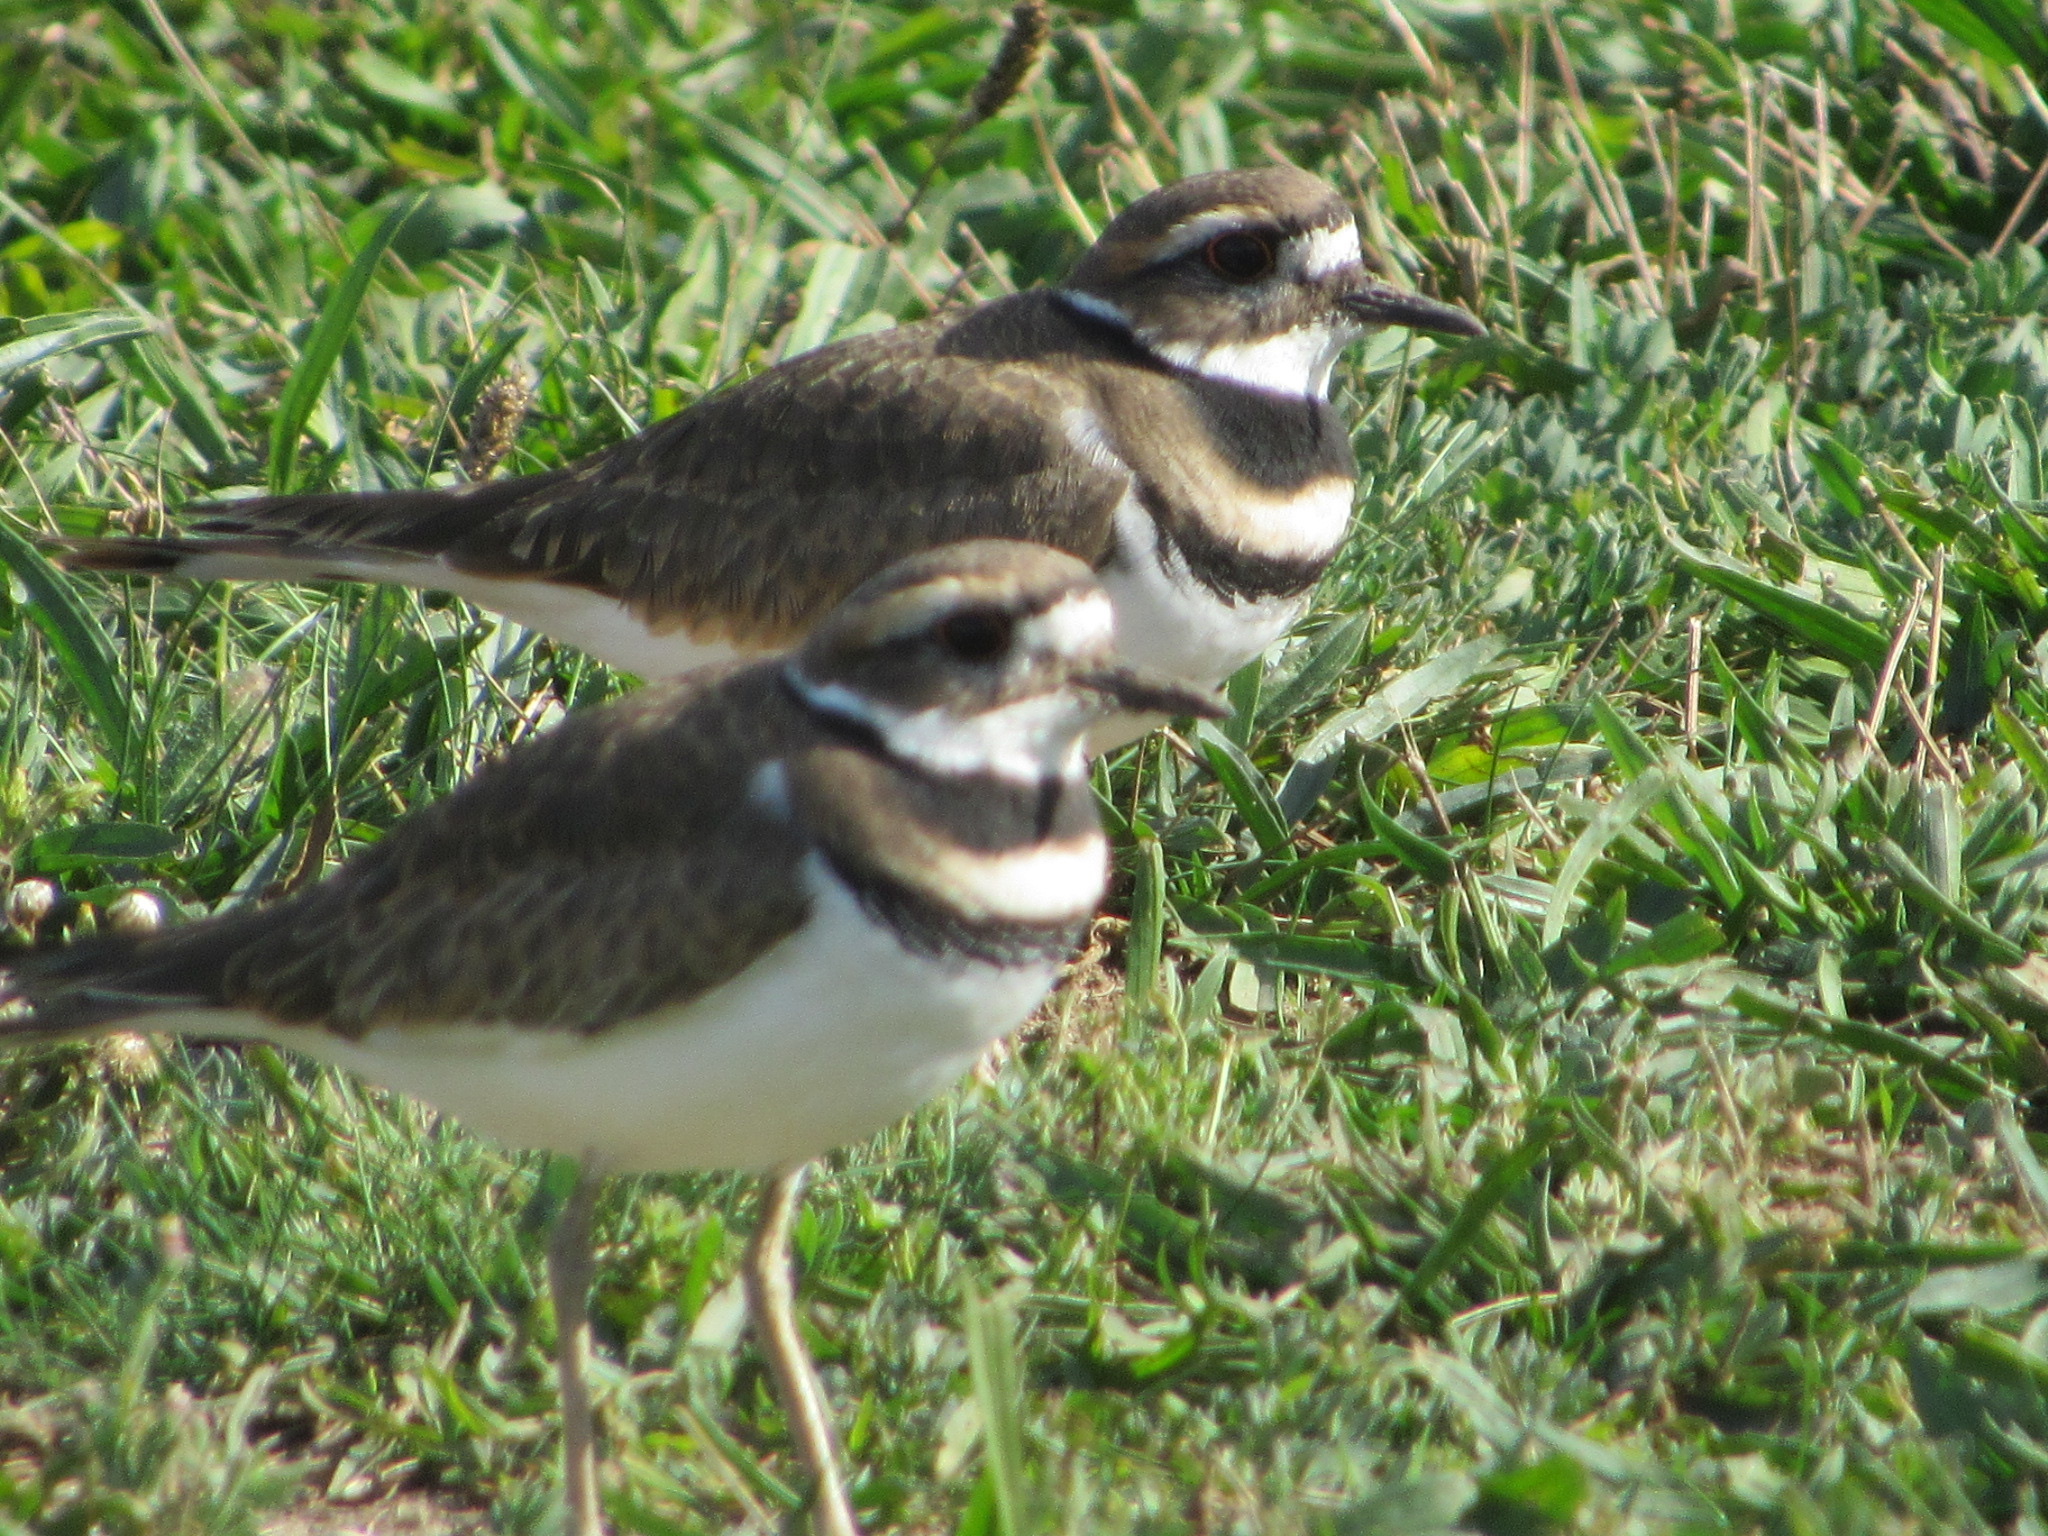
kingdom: Animalia
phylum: Chordata
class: Aves
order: Charadriiformes
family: Charadriidae
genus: Charadrius
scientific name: Charadrius vociferus
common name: Killdeer
